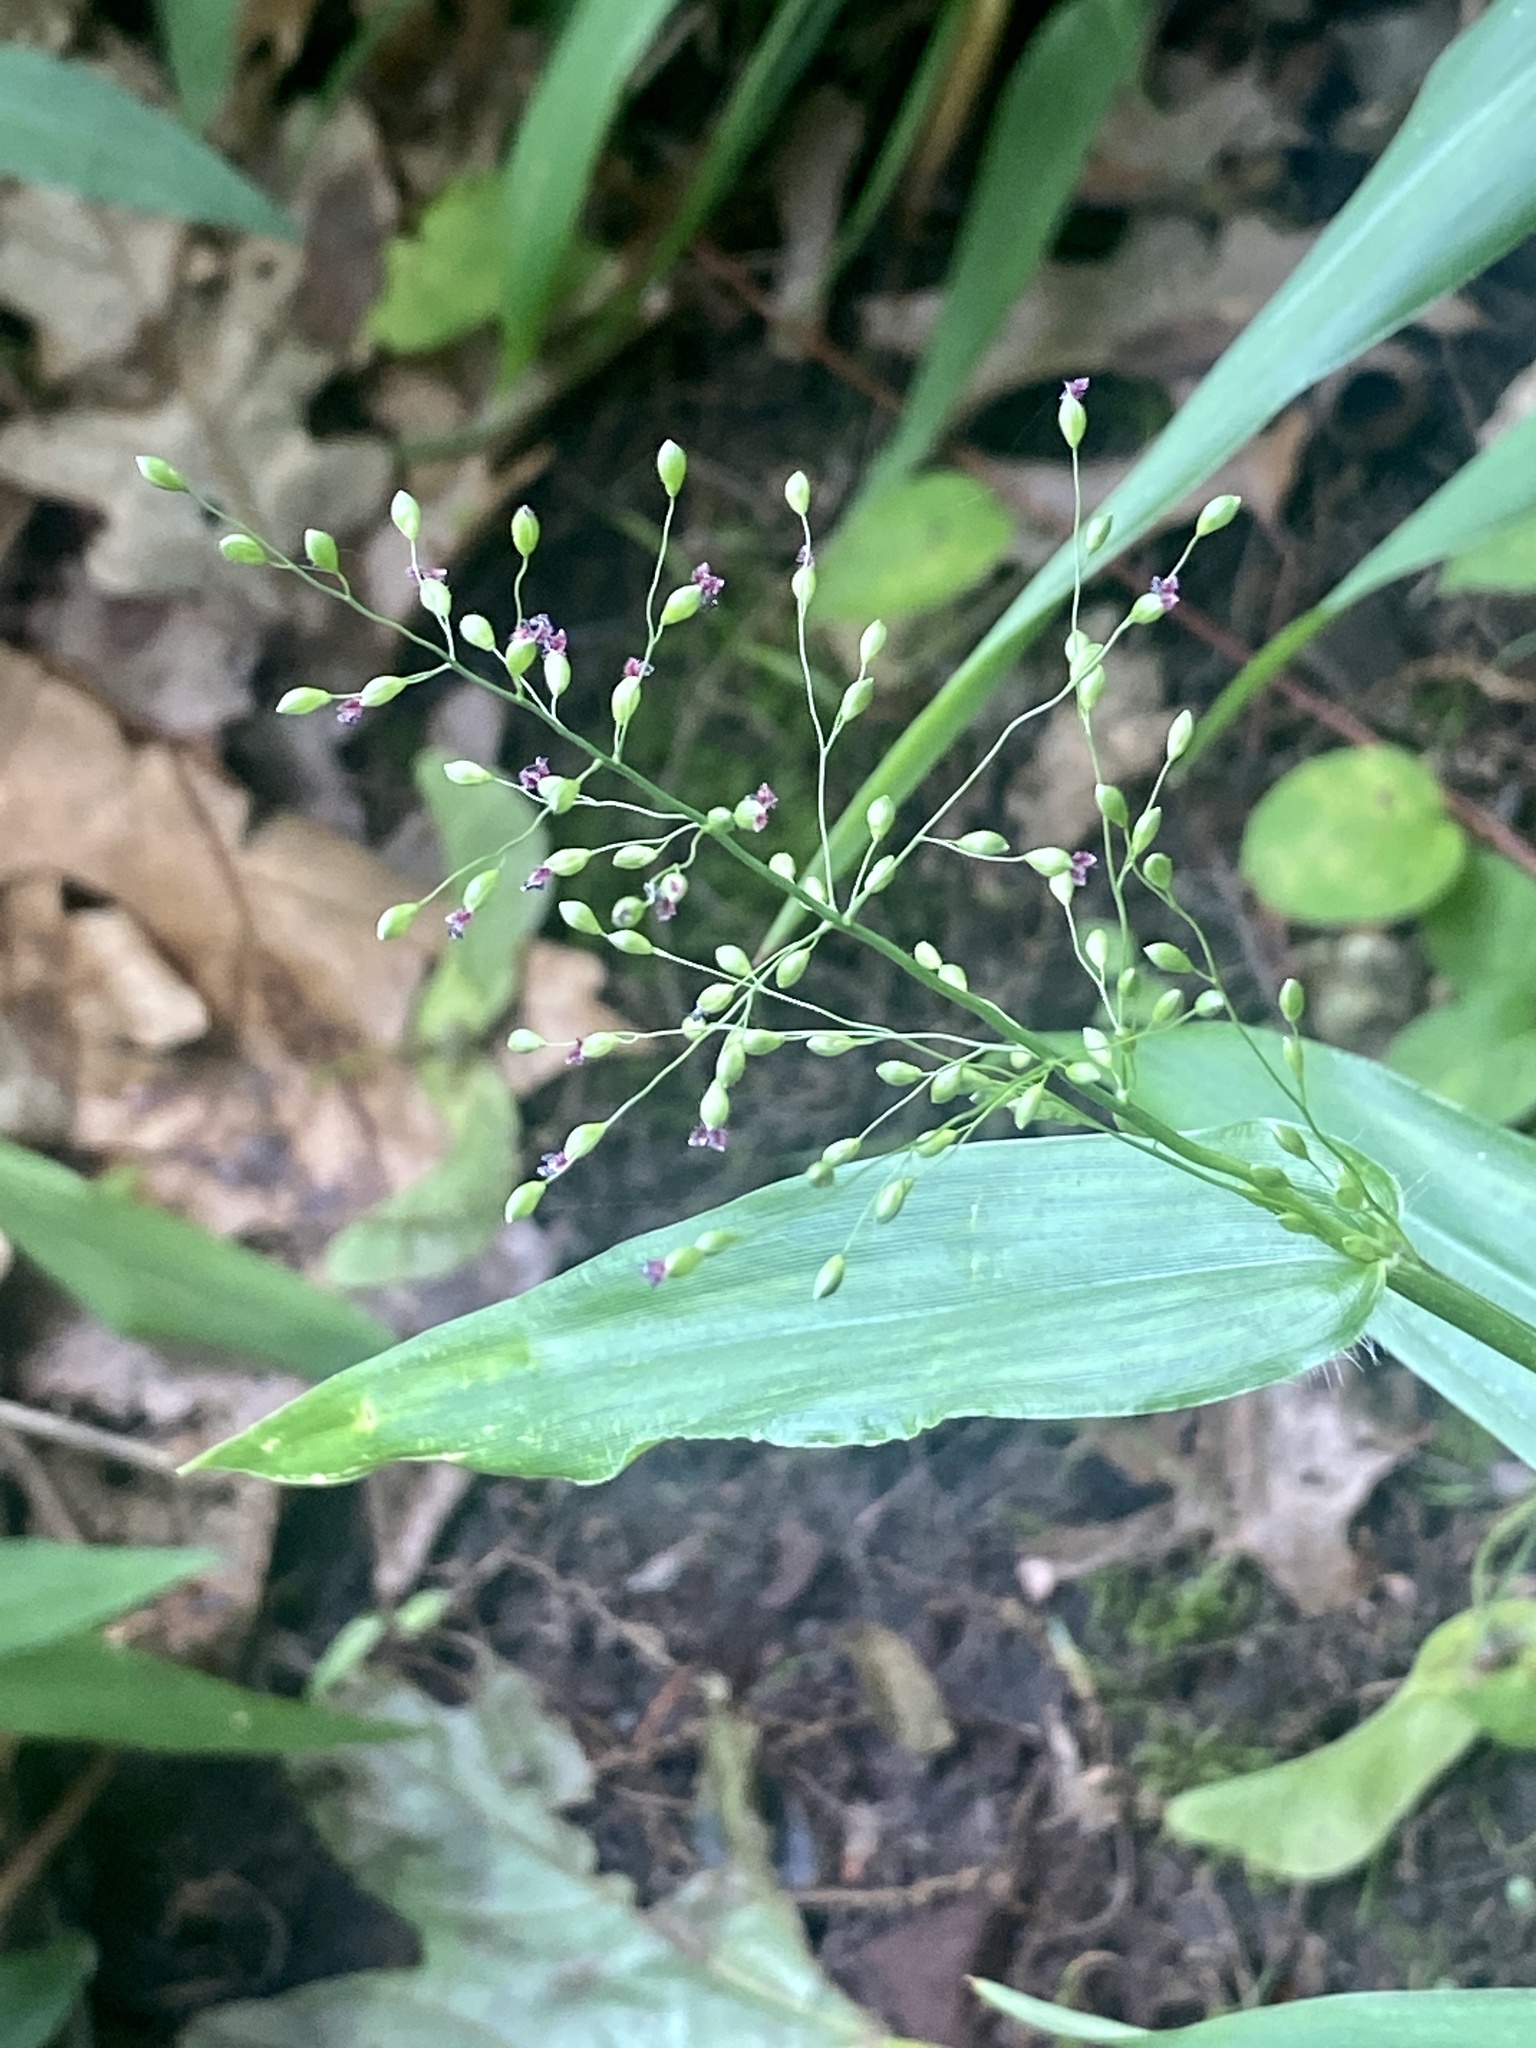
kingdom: Plantae
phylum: Tracheophyta
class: Liliopsida
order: Poales
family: Poaceae
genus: Dichanthelium
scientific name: Dichanthelium clandestinum
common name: Deer-tongue grass
